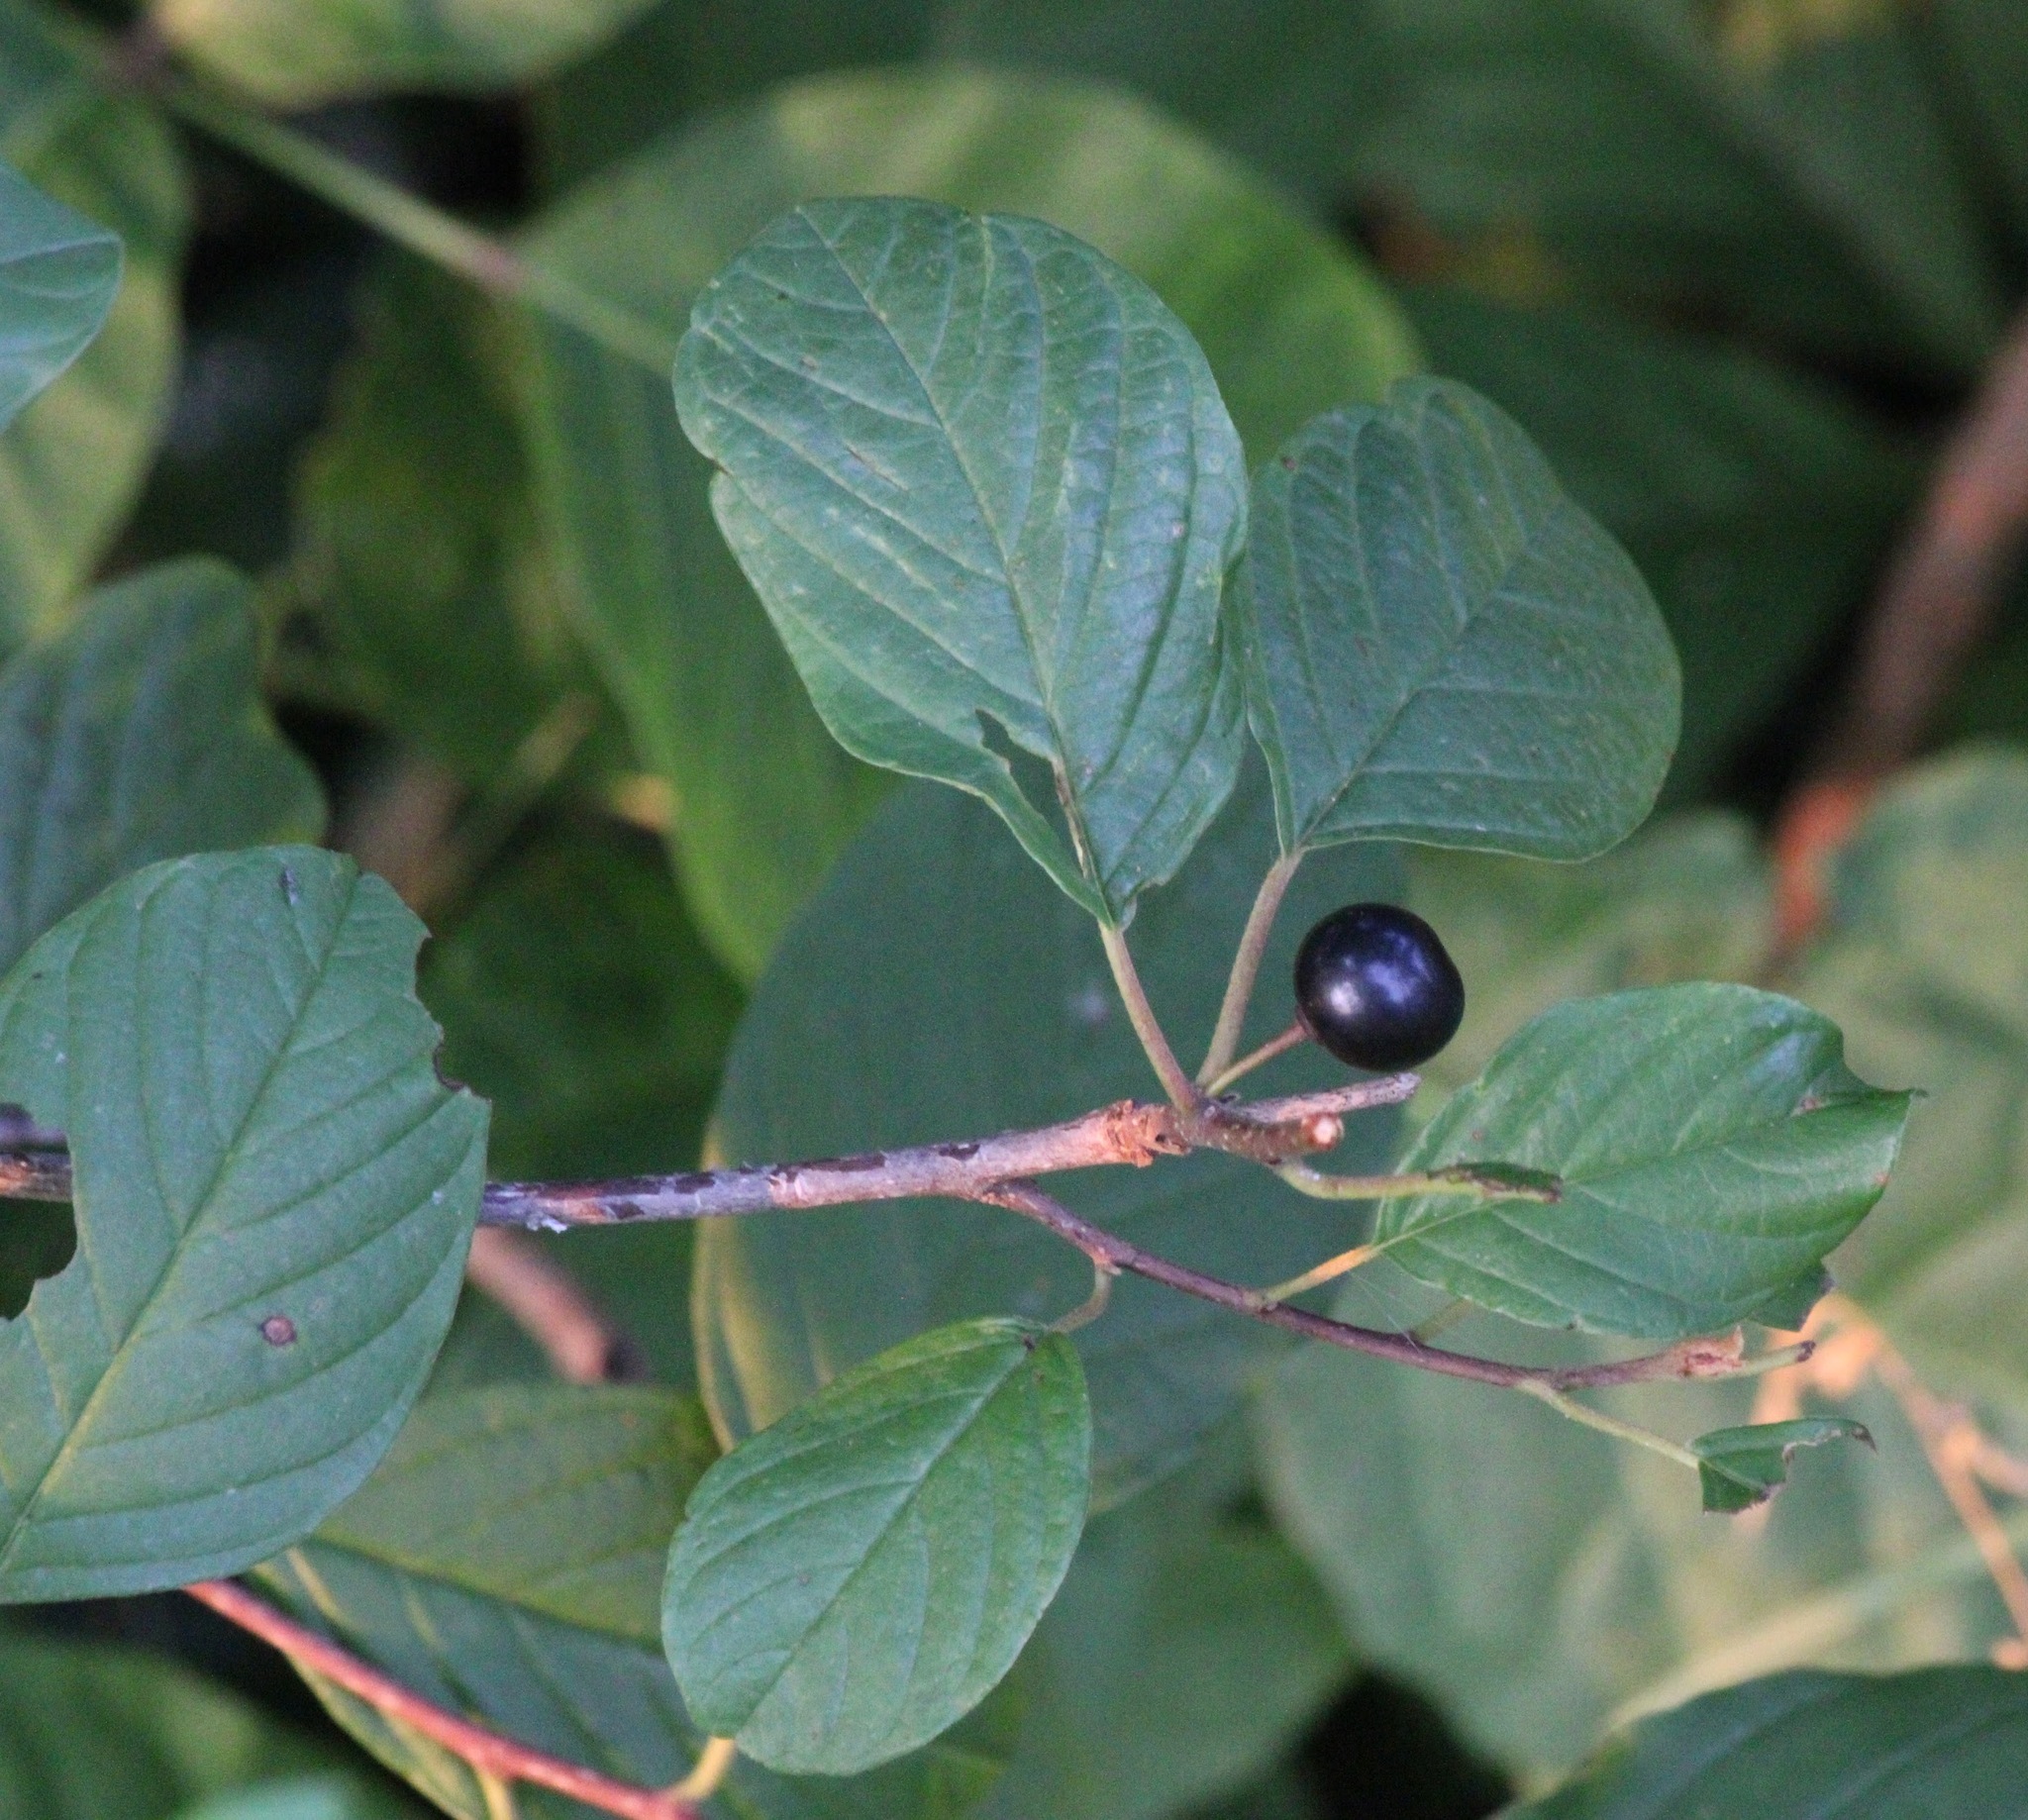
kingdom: Plantae
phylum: Tracheophyta
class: Magnoliopsida
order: Rosales
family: Rhamnaceae
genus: Frangula
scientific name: Frangula alnus
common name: Alder buckthorn
